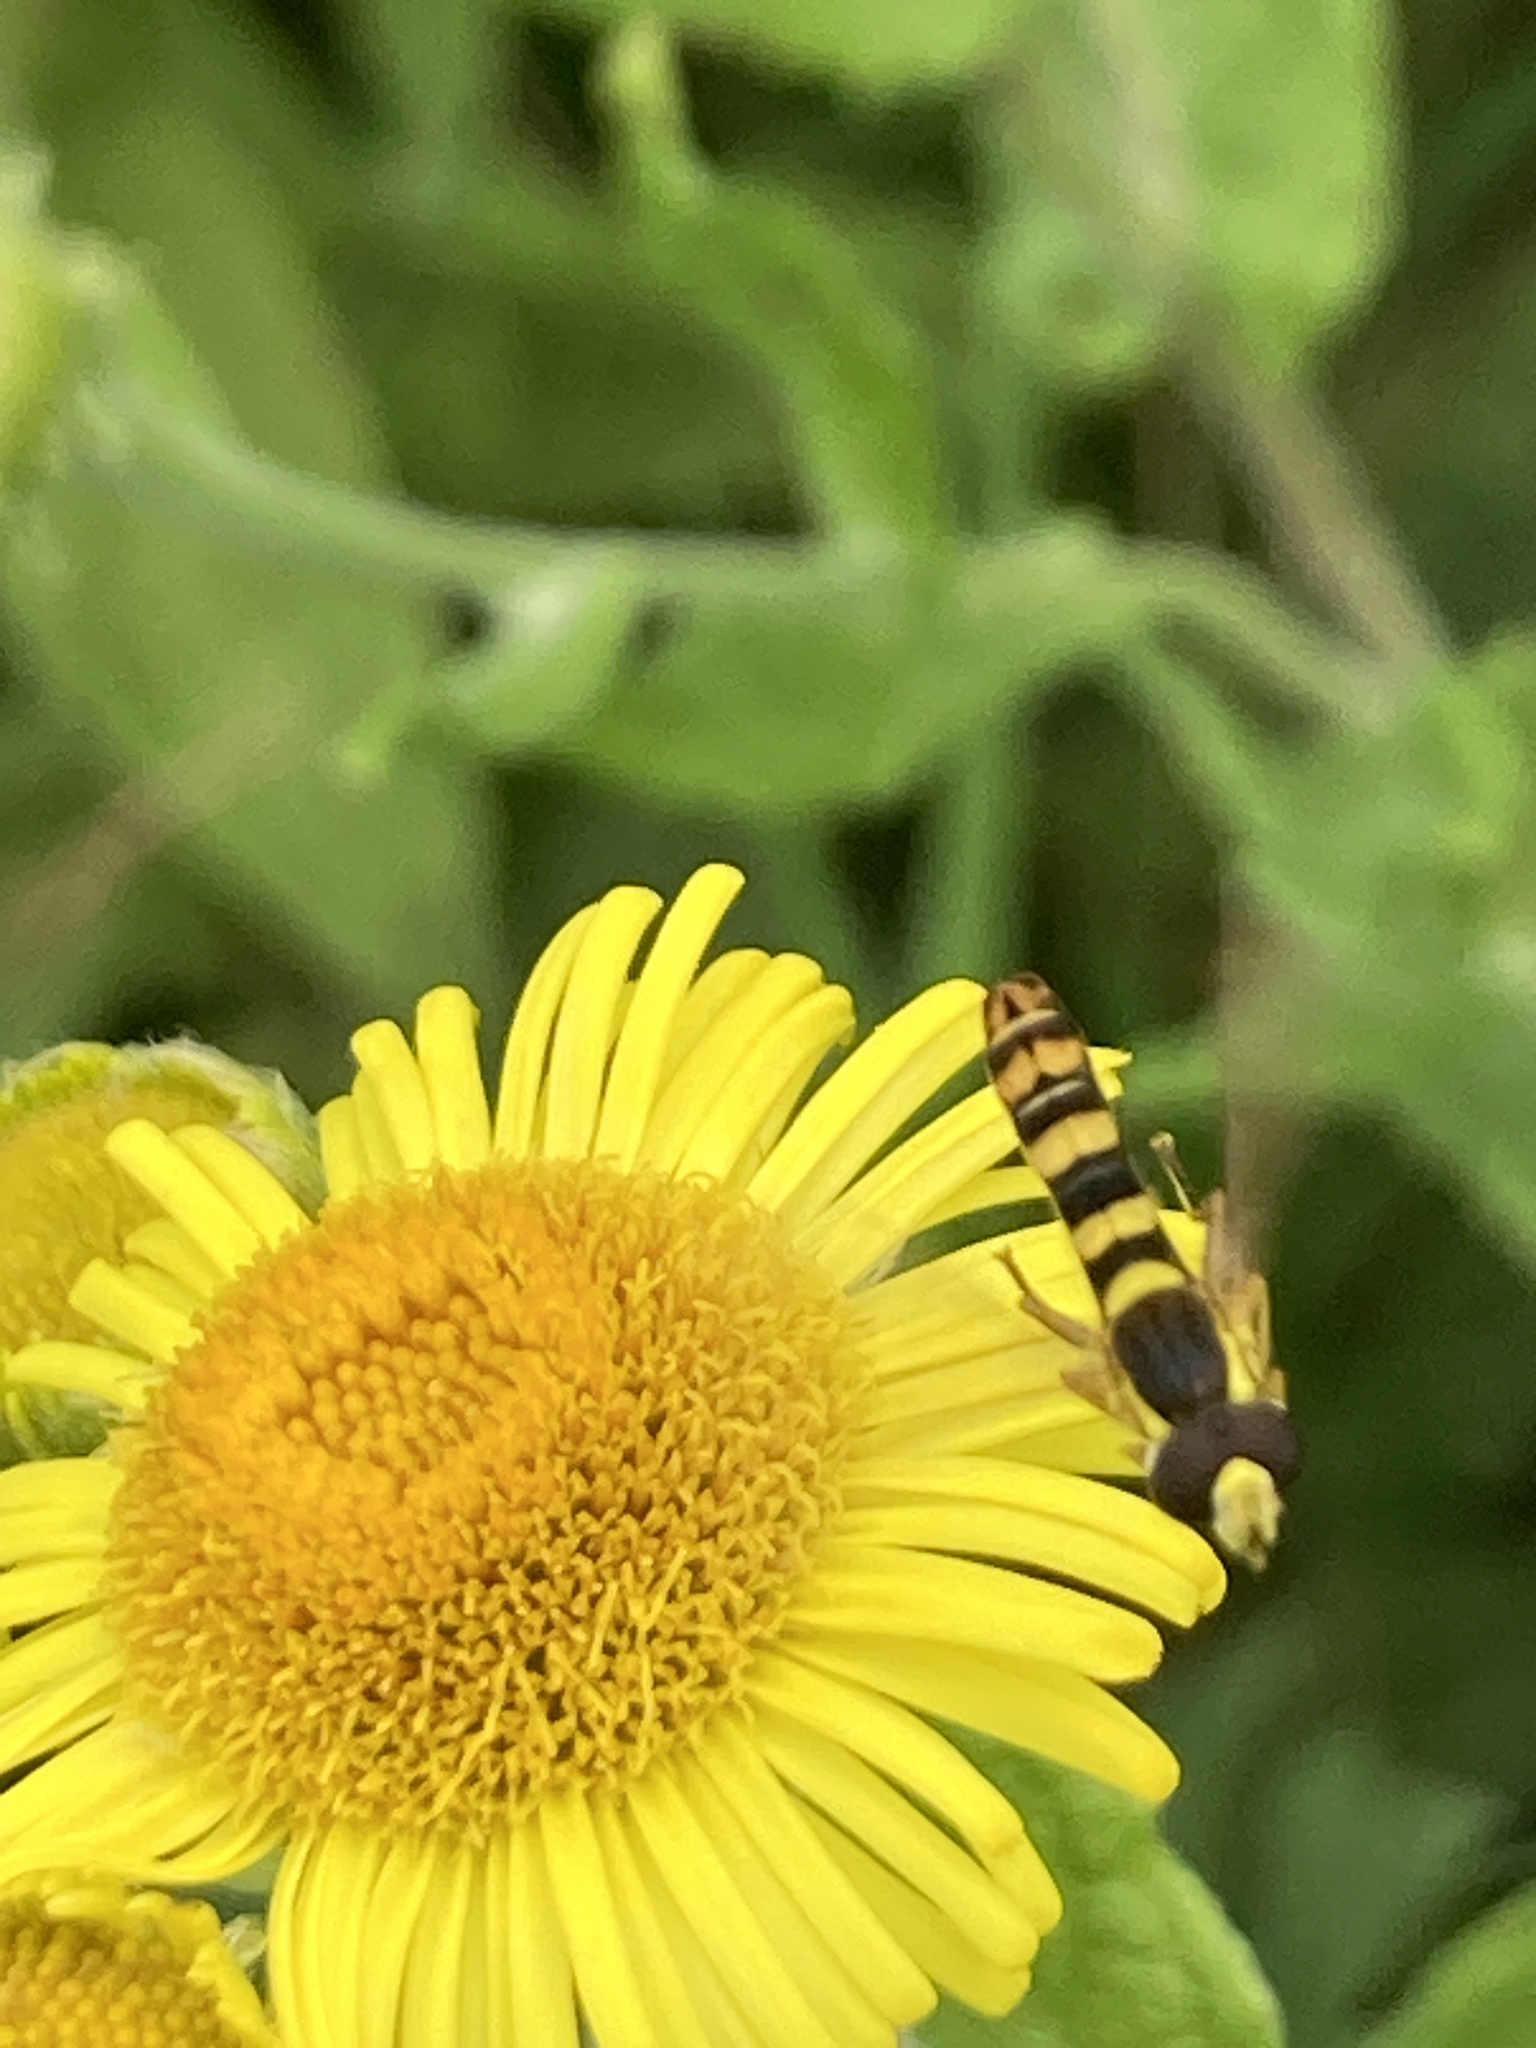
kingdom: Animalia
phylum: Arthropoda
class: Insecta
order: Diptera
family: Syrphidae
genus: Sphaerophoria
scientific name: Sphaerophoria scripta
